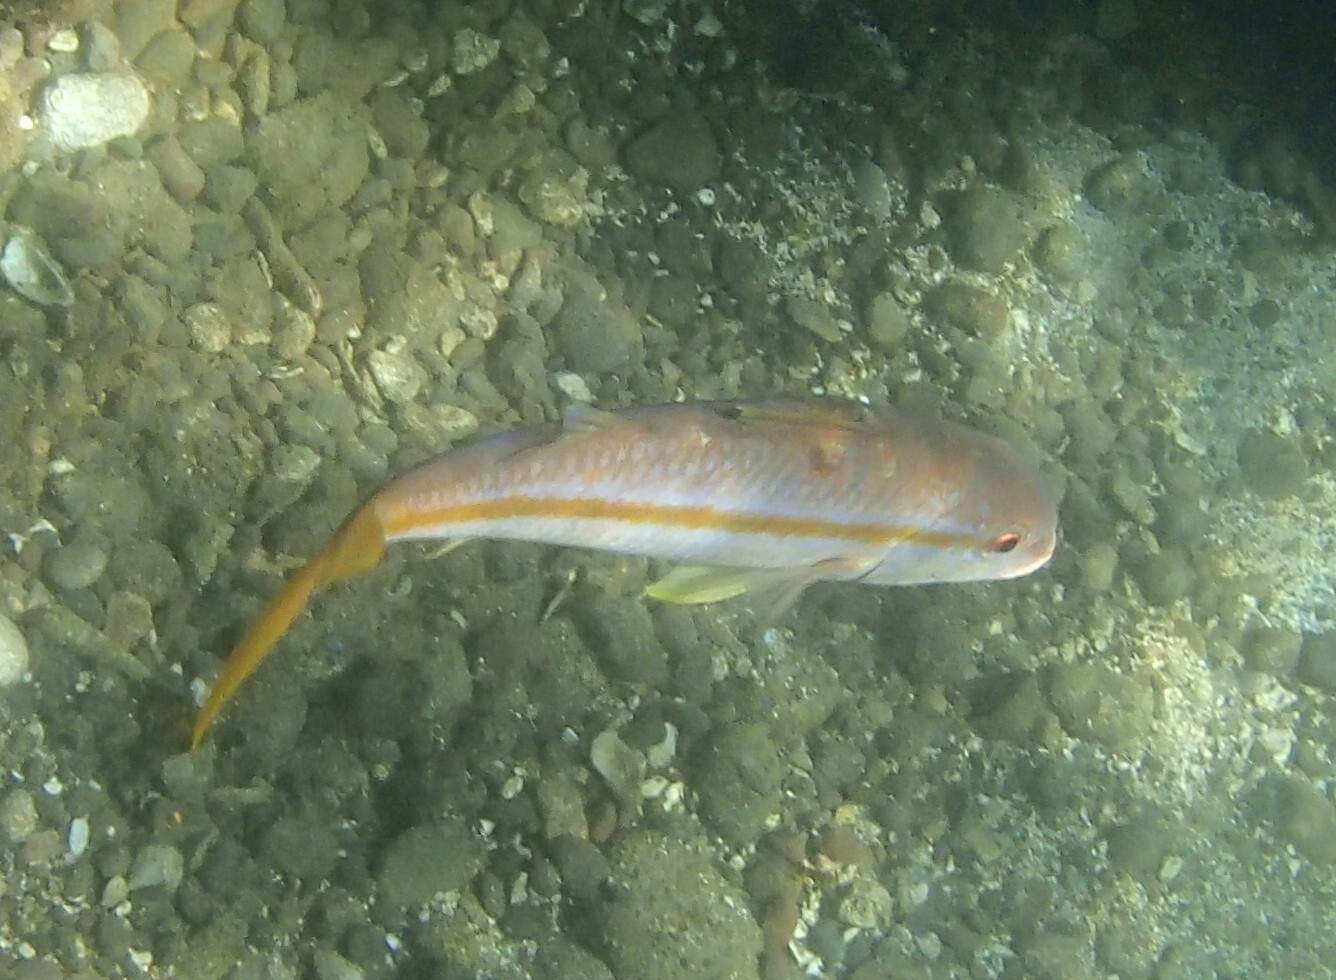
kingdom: Animalia
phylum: Chordata
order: Perciformes
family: Mullidae
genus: Mulloidichthys
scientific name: Mulloidichthys dentatus
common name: Mexican goatfish
